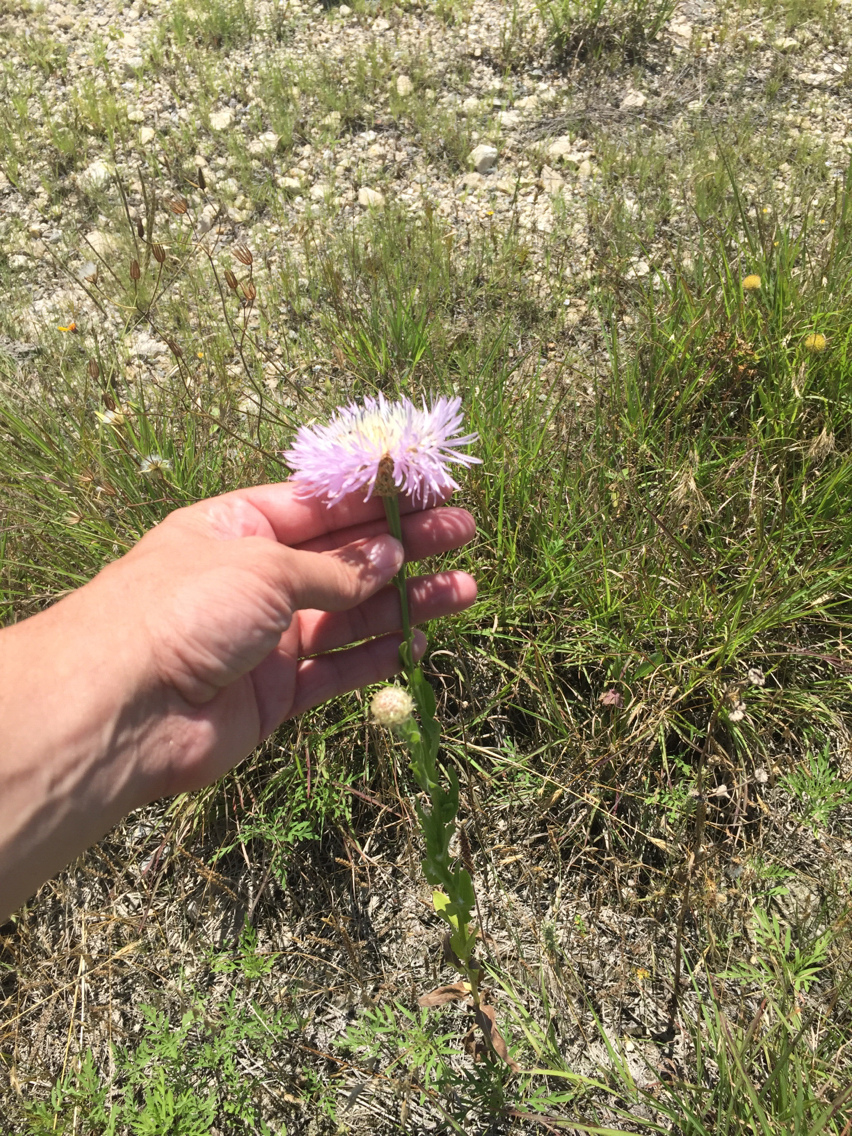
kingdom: Plantae
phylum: Tracheophyta
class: Magnoliopsida
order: Asterales
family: Asteraceae
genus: Plectocephalus
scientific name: Plectocephalus americanus
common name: American basket-flower
